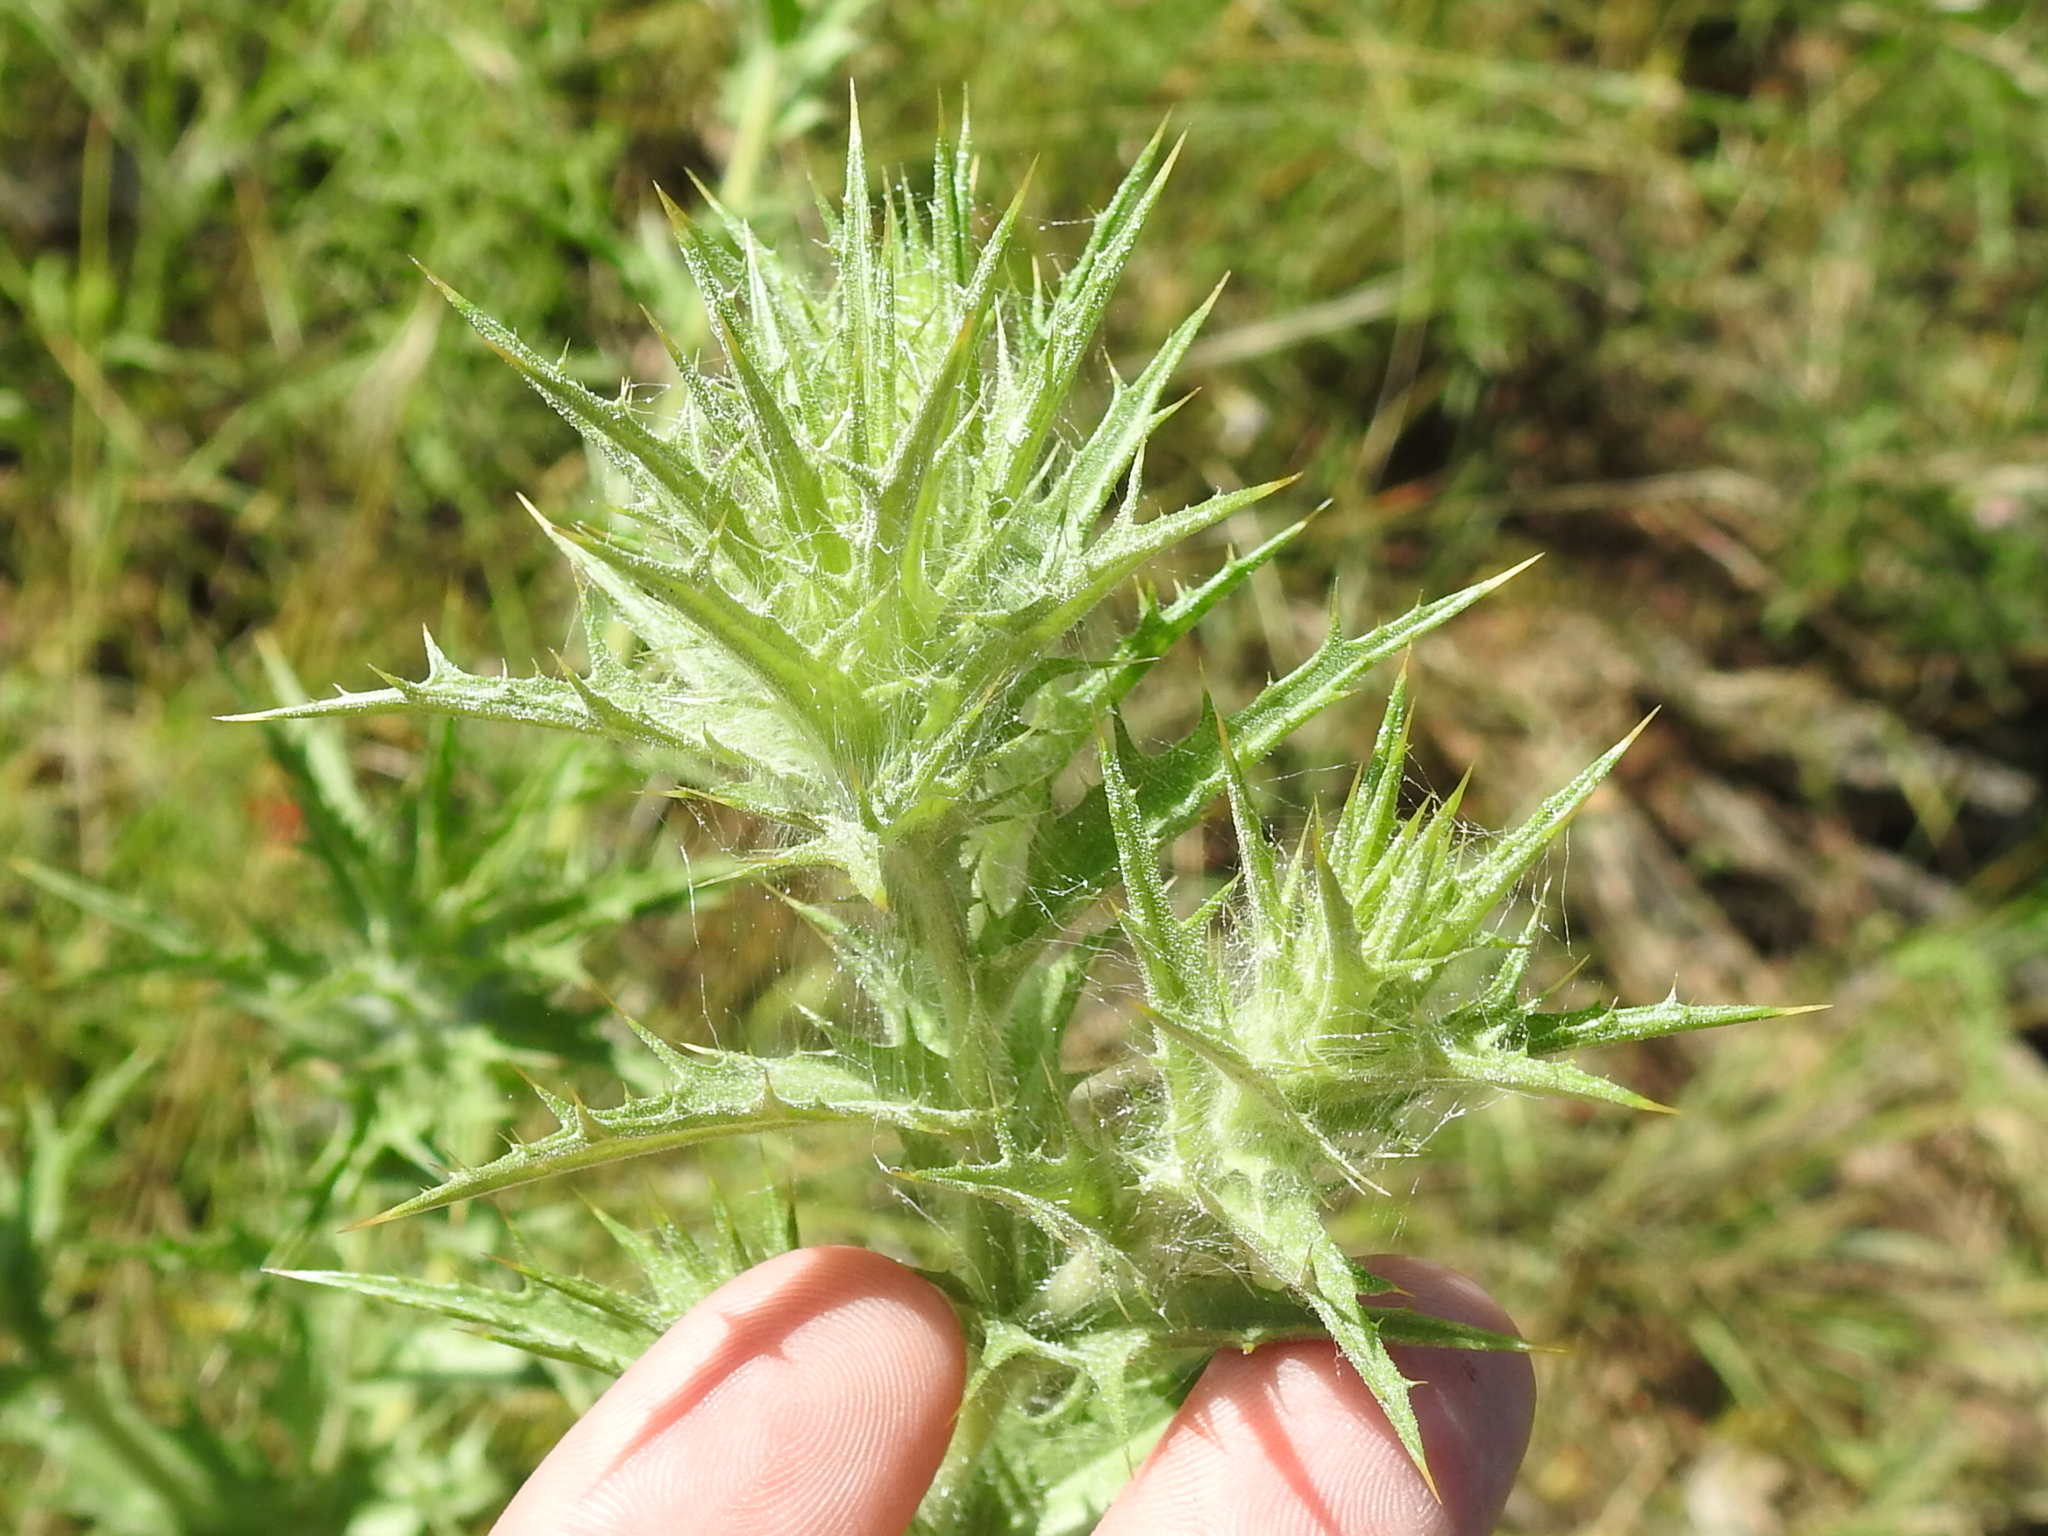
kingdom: Plantae
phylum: Tracheophyta
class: Magnoliopsida
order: Asterales
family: Asteraceae
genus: Carthamus
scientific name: Carthamus lanatus
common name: Downy safflower
